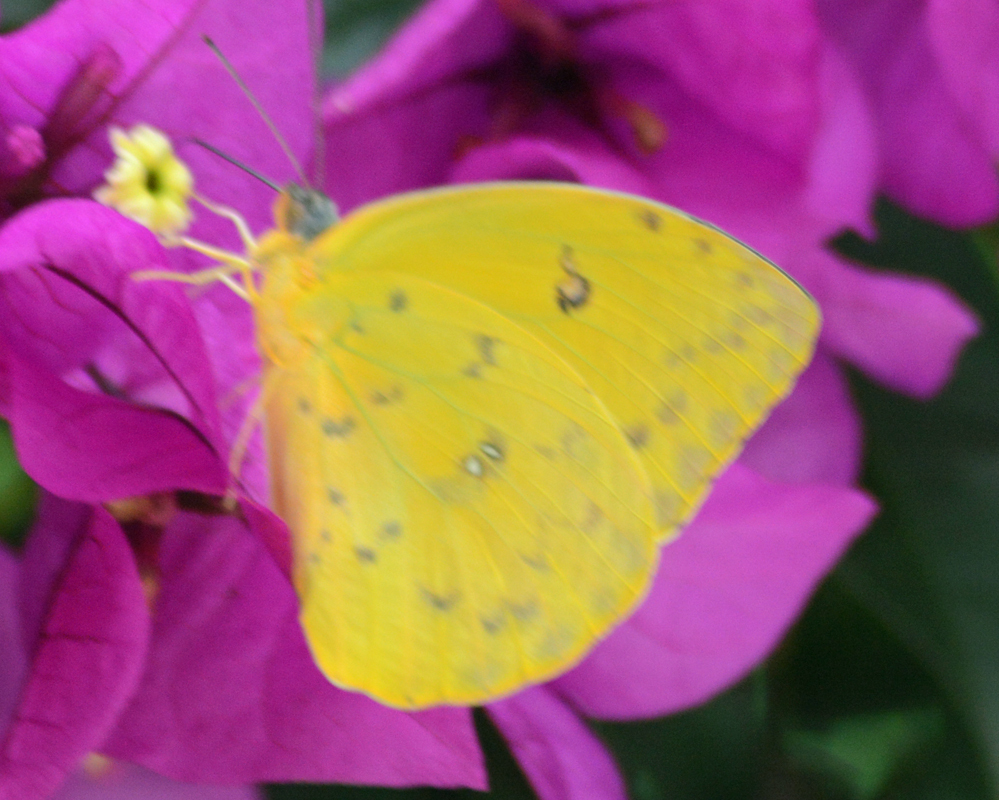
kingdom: Animalia
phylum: Arthropoda
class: Insecta
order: Lepidoptera
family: Pieridae
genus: Phoebis
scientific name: Phoebis philea
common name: Orange-barred giant sulphur
